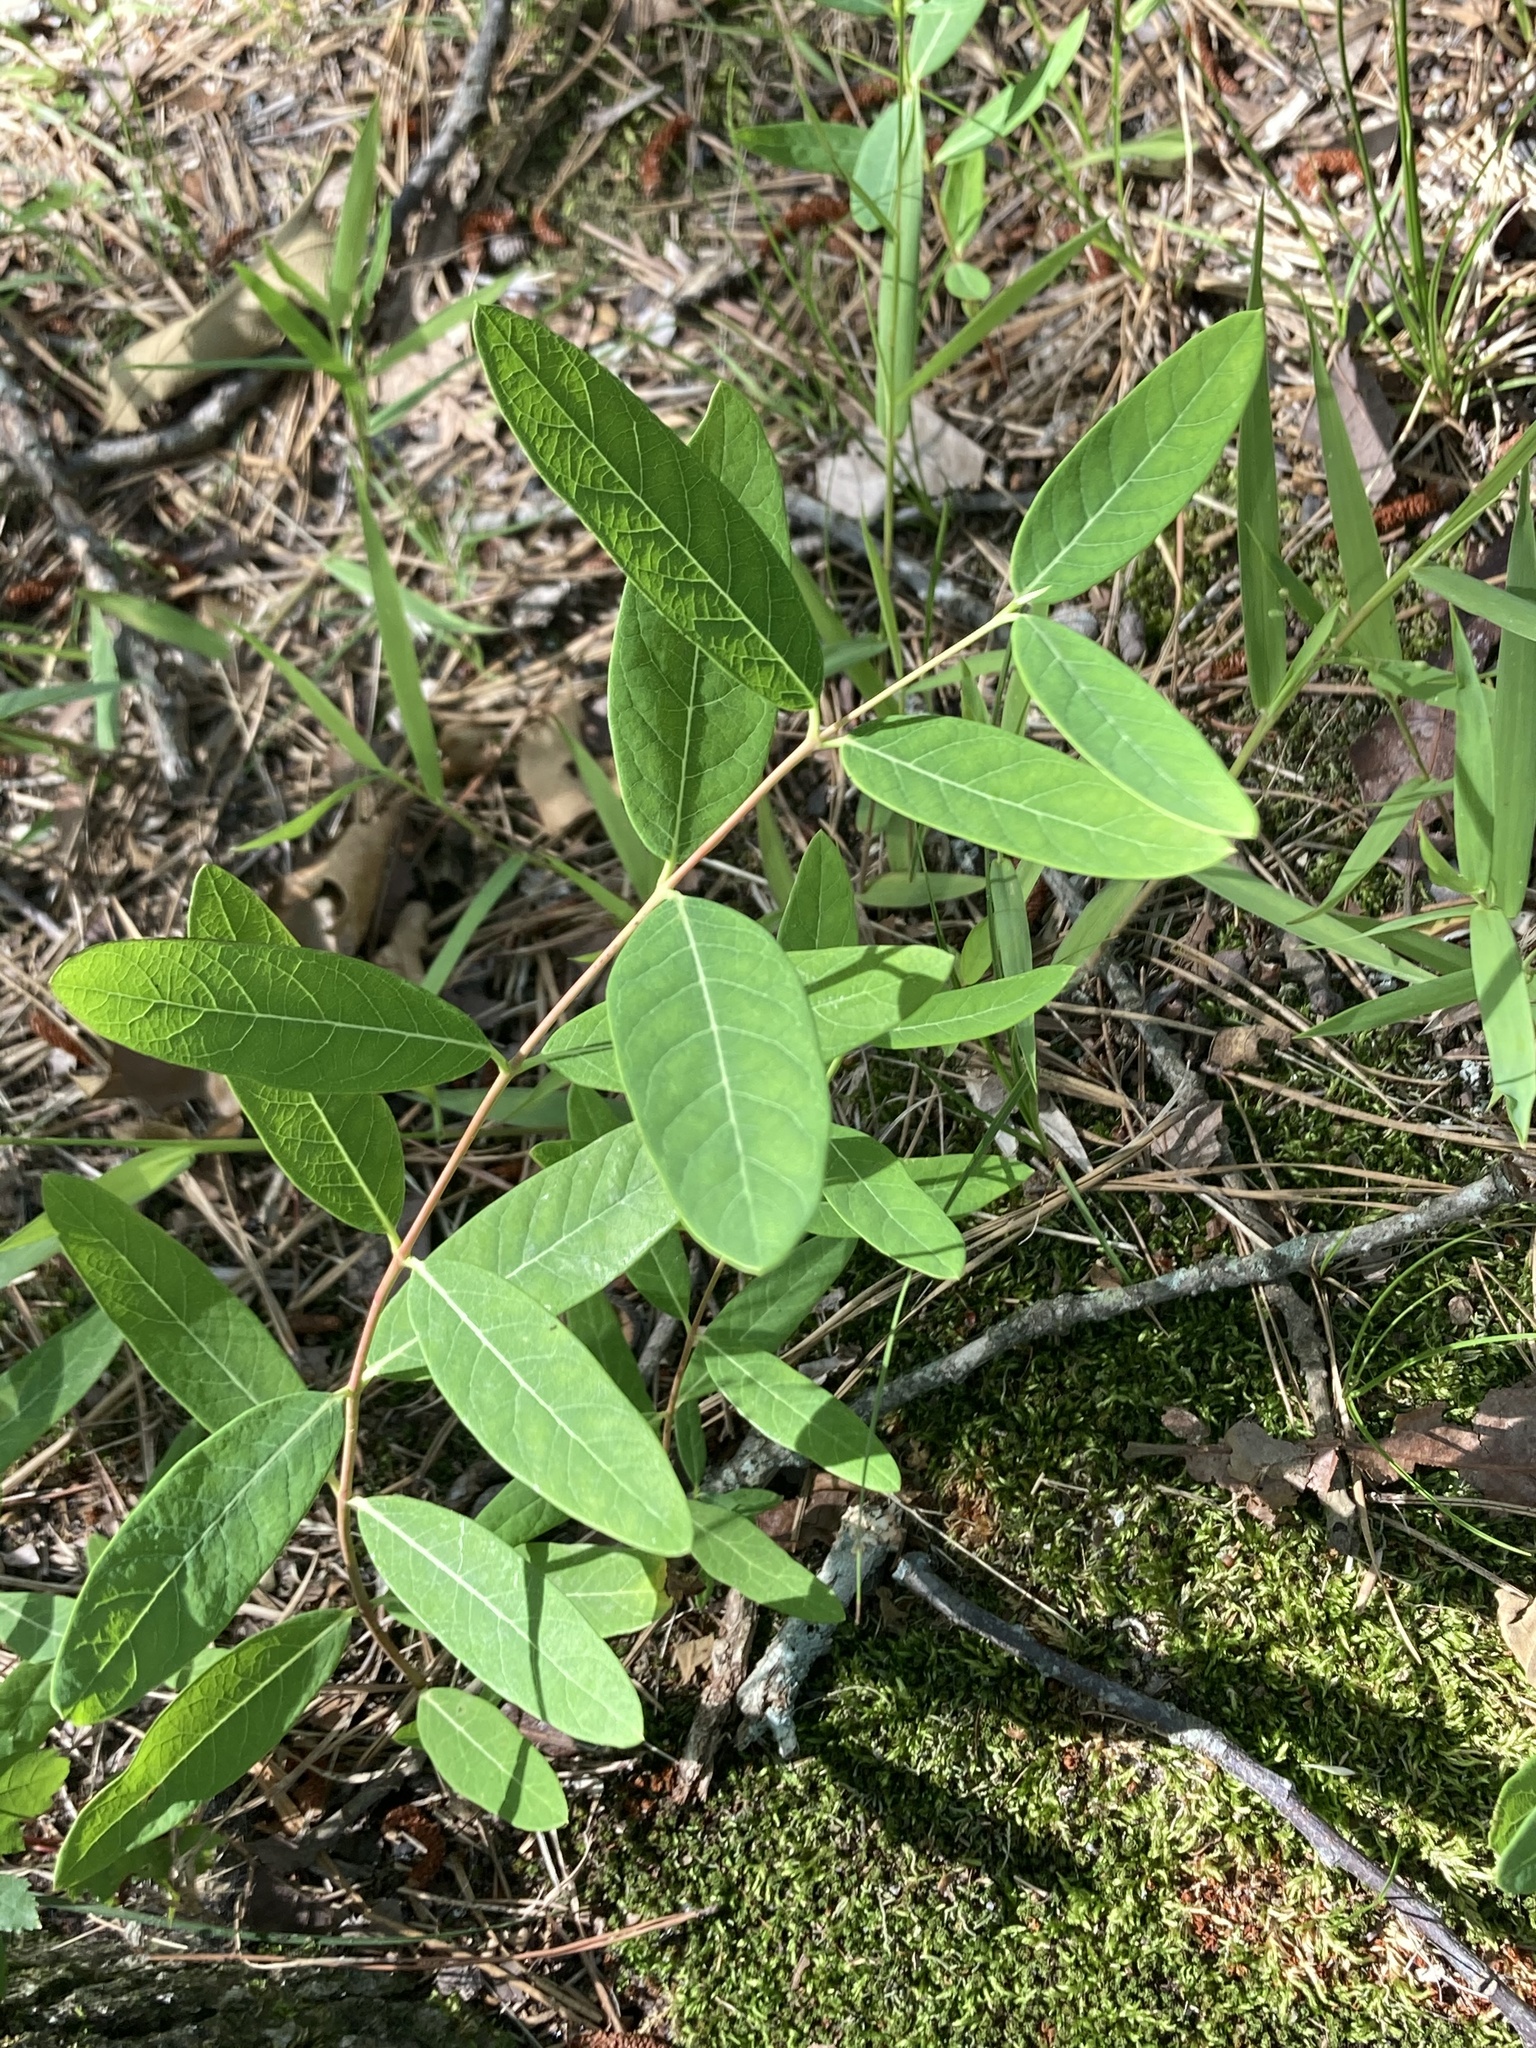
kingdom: Plantae
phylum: Tracheophyta
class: Magnoliopsida
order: Gentianales
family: Apocynaceae
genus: Apocynum
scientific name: Apocynum cannabinum
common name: Hemp dogbane
